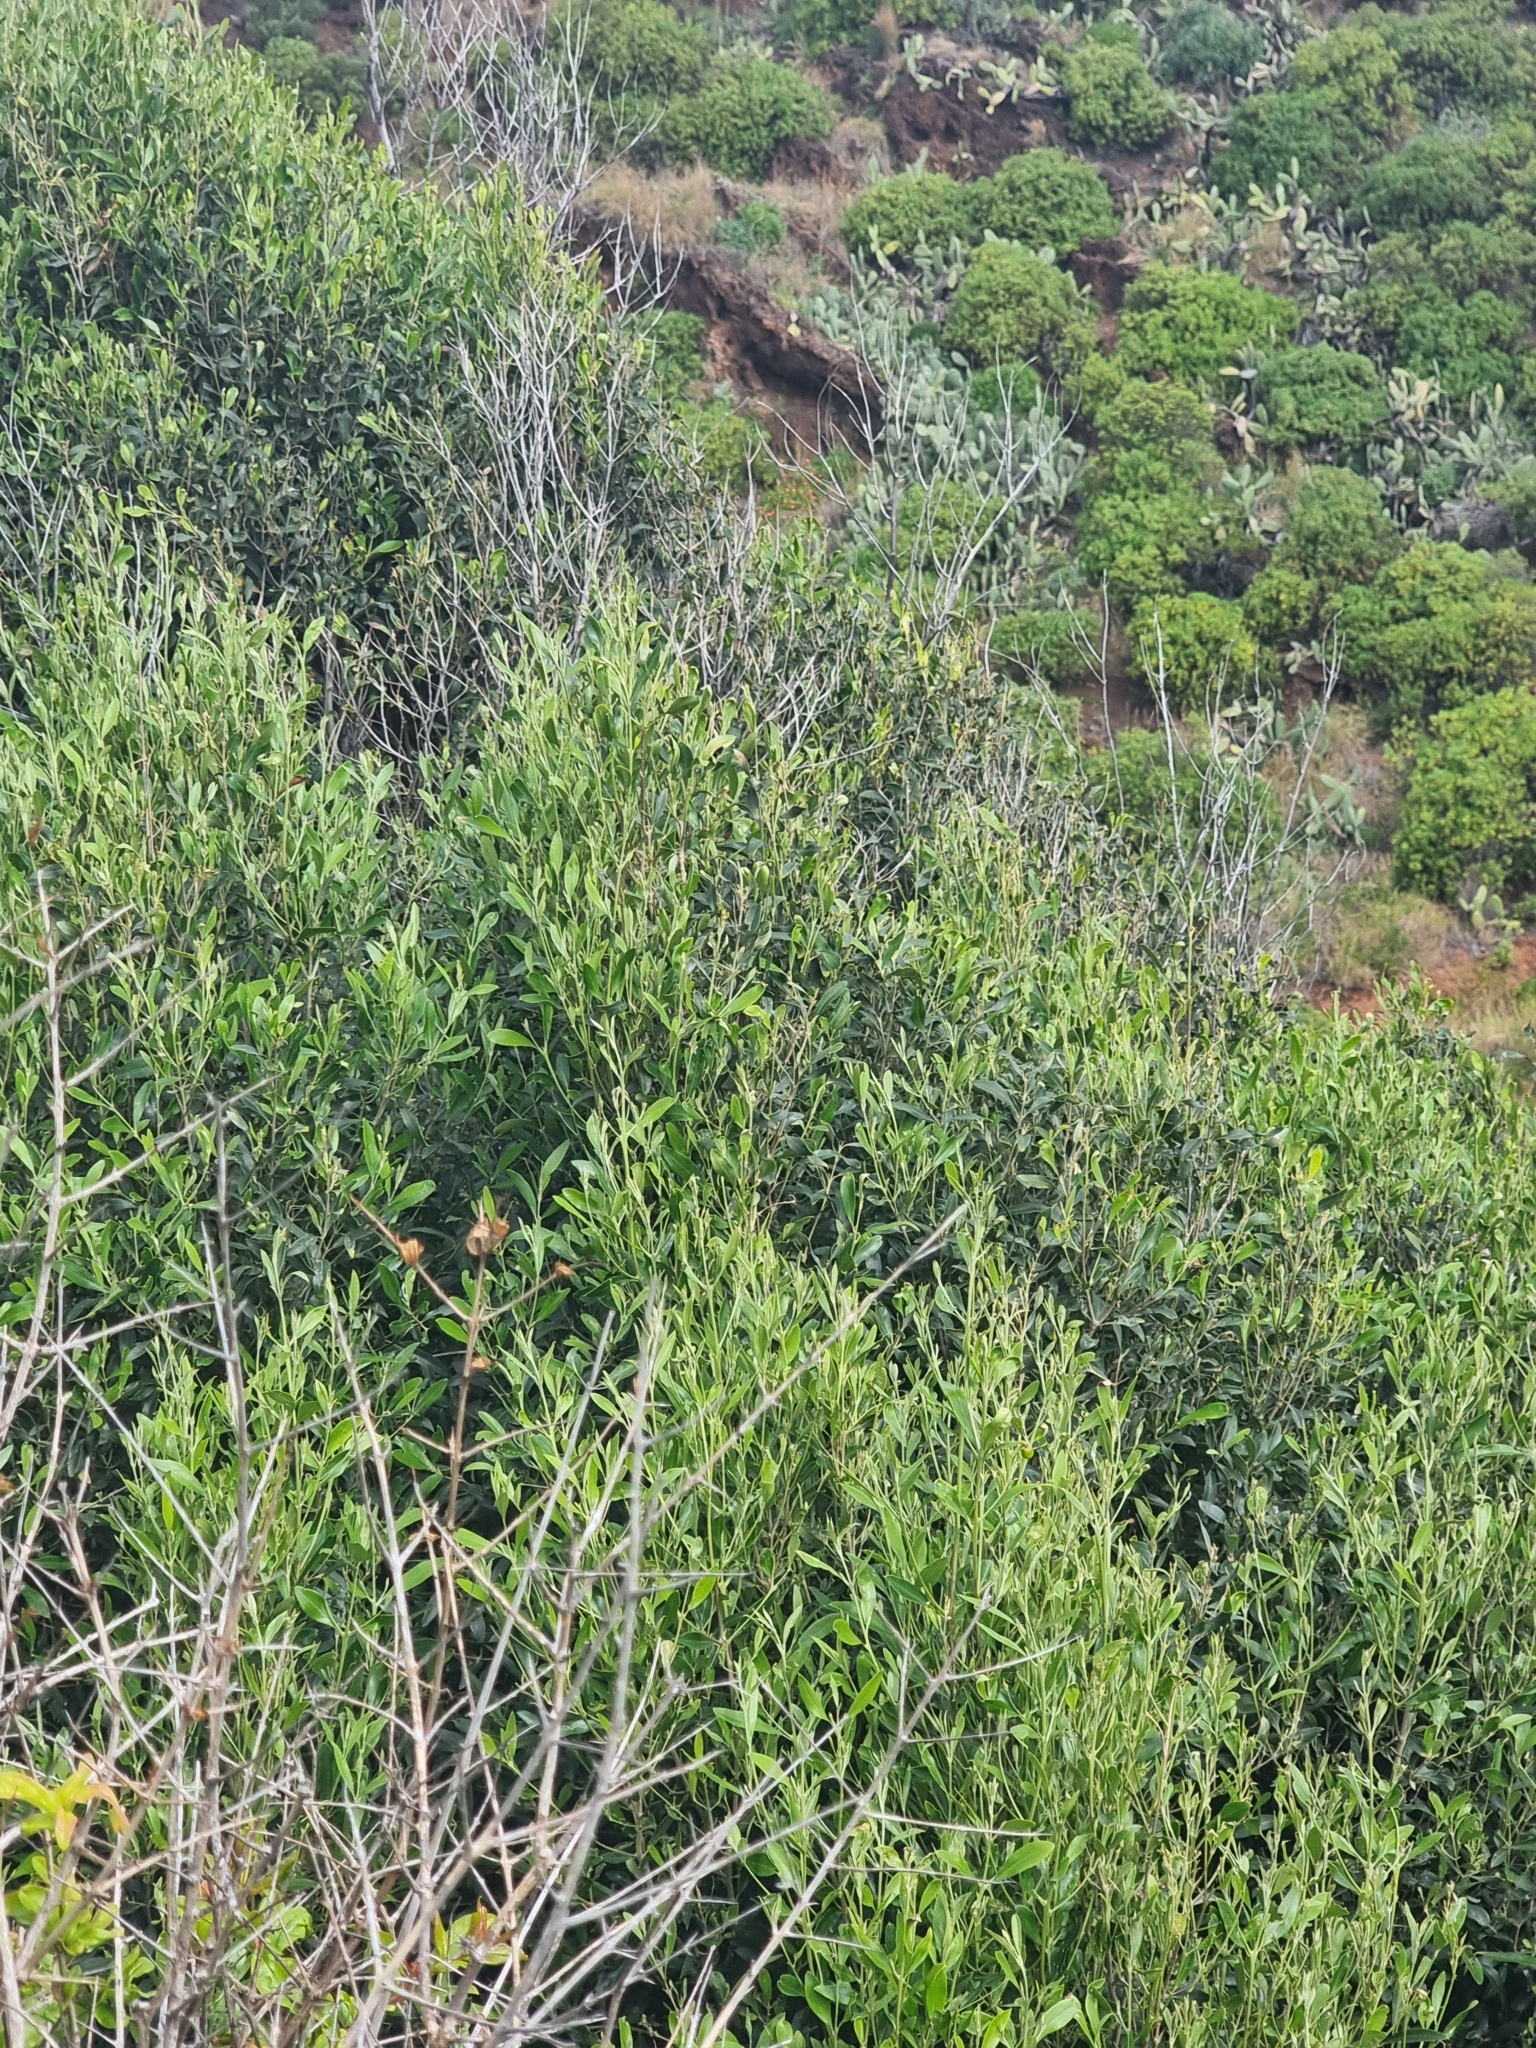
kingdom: Plantae
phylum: Tracheophyta
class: Magnoliopsida
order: Lamiales
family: Oleaceae
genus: Olea
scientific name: Olea europaea
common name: Olive
